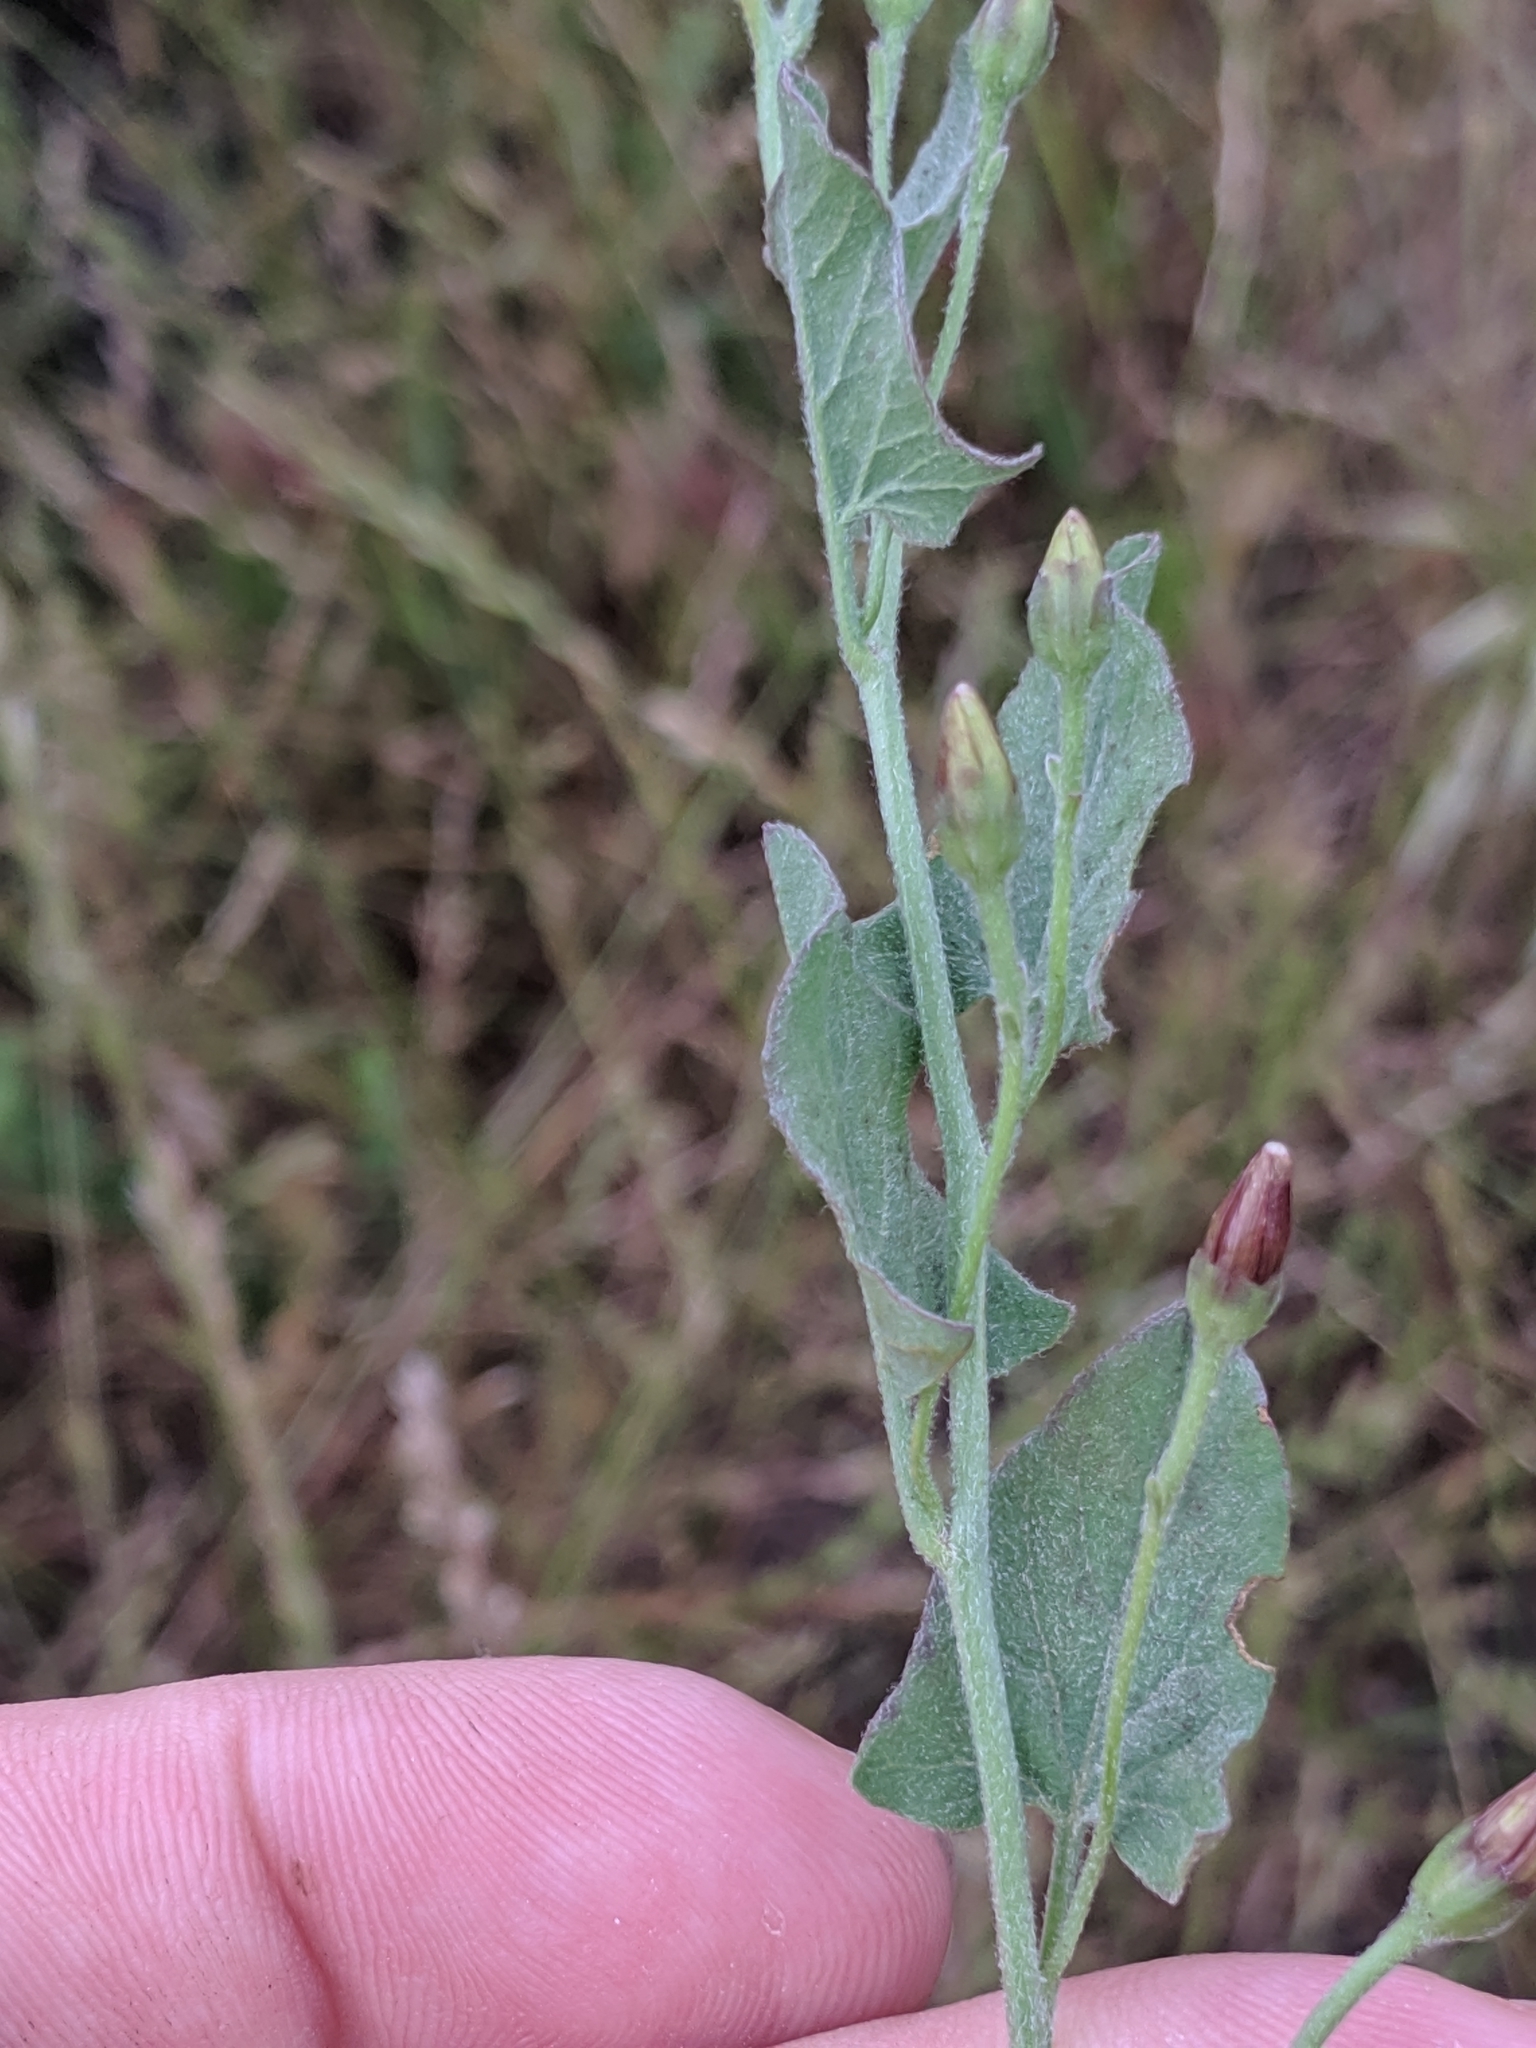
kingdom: Plantae
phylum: Tracheophyta
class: Magnoliopsida
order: Solanales
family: Convolvulaceae
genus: Convolvulus
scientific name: Convolvulus arvensis
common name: Field bindweed
